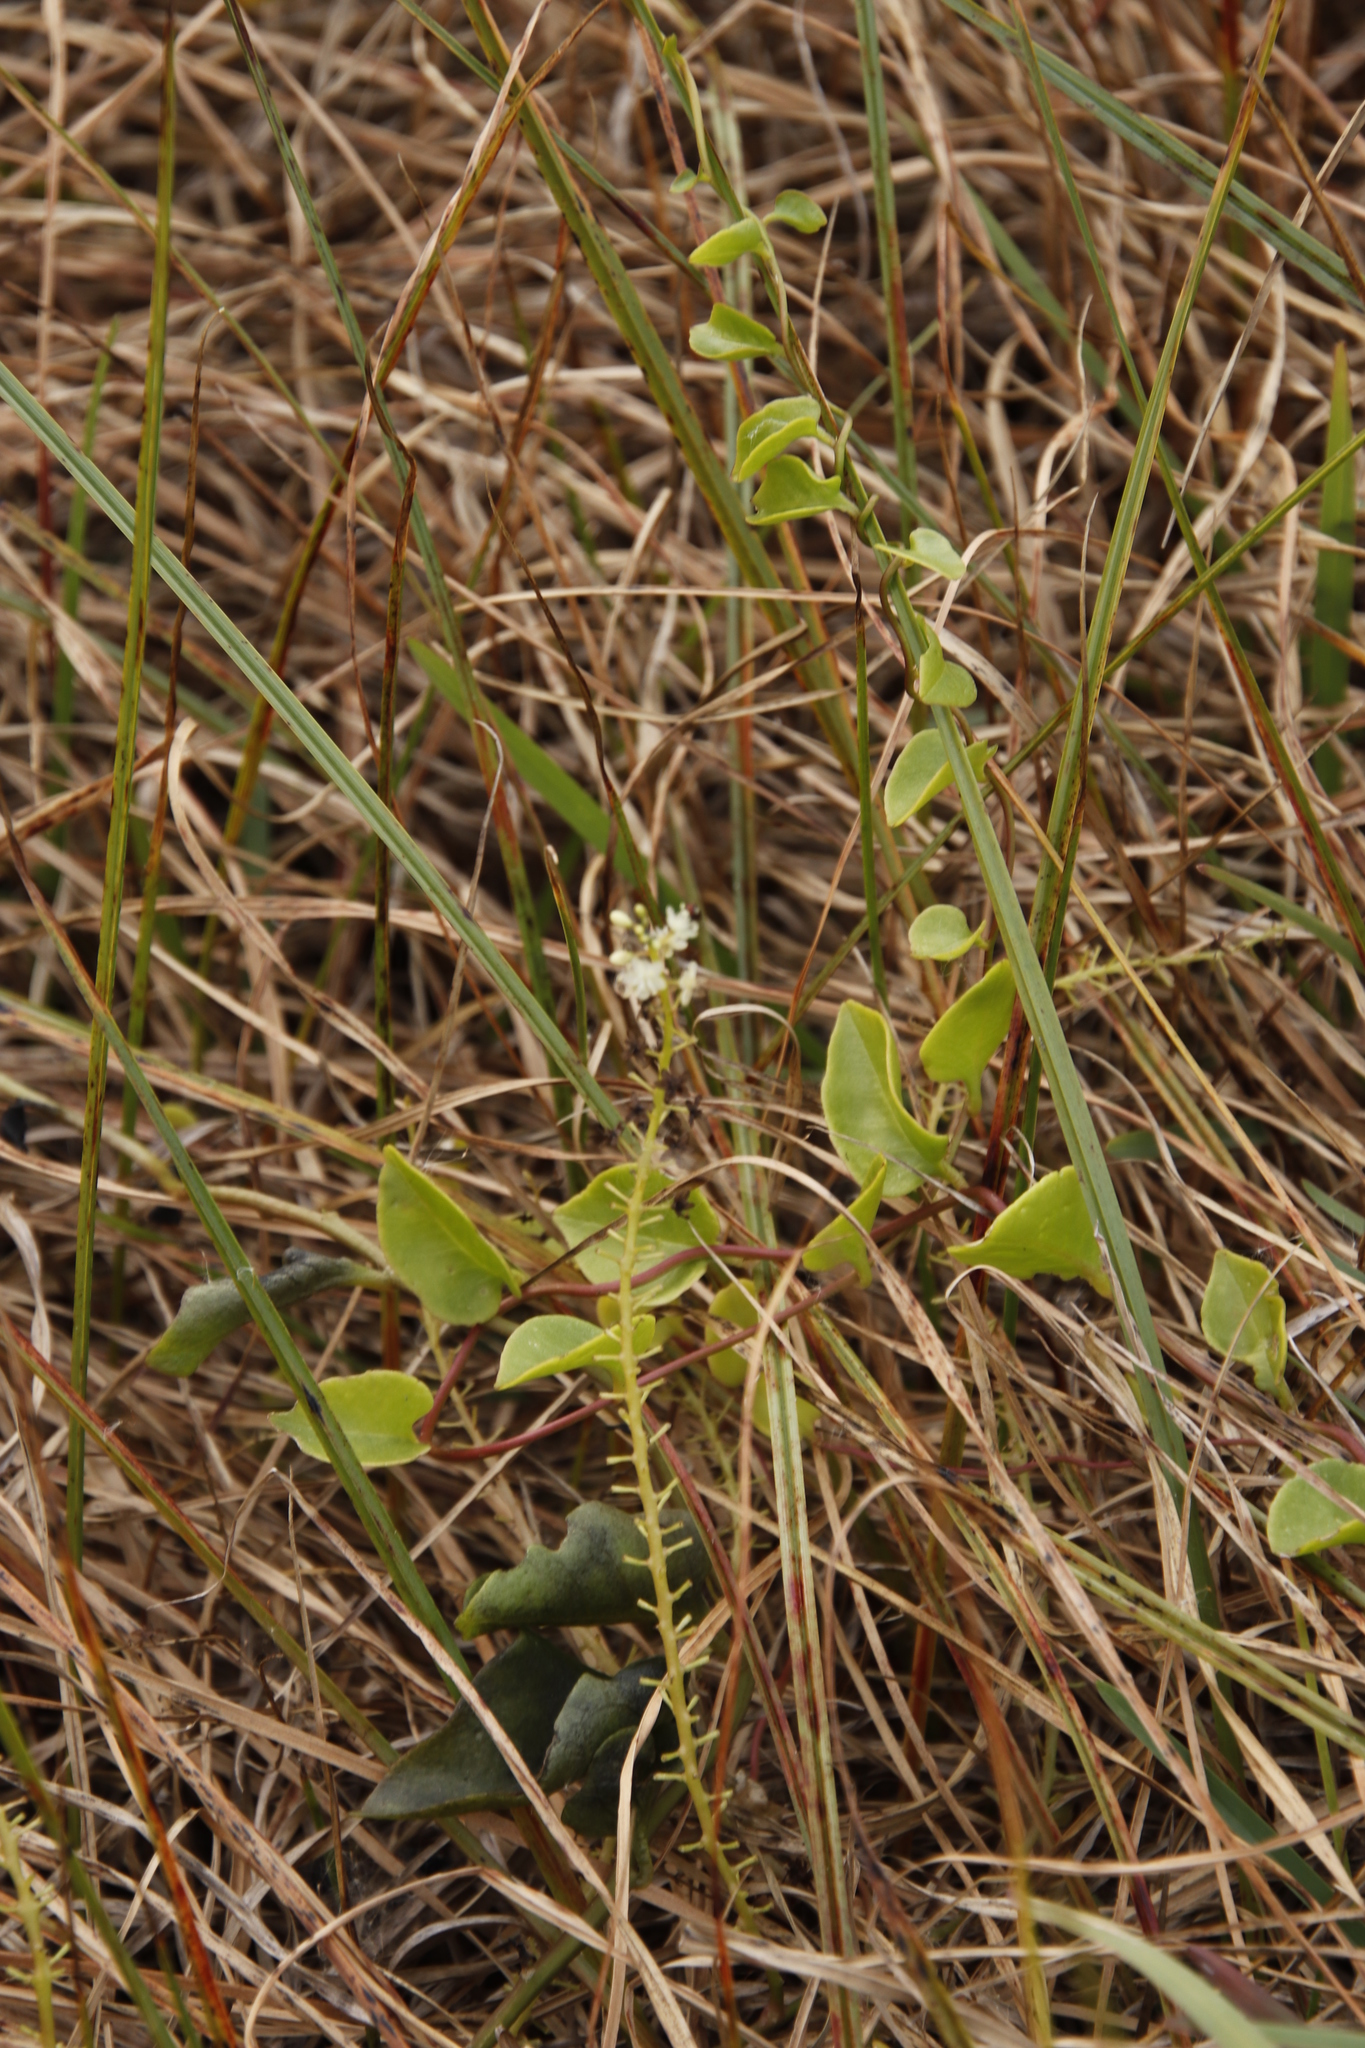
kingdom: Plantae
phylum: Tracheophyta
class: Magnoliopsida
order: Caryophyllales
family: Basellaceae
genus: Anredera
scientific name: Anredera cordifolia
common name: Heartleaf madeiravine
